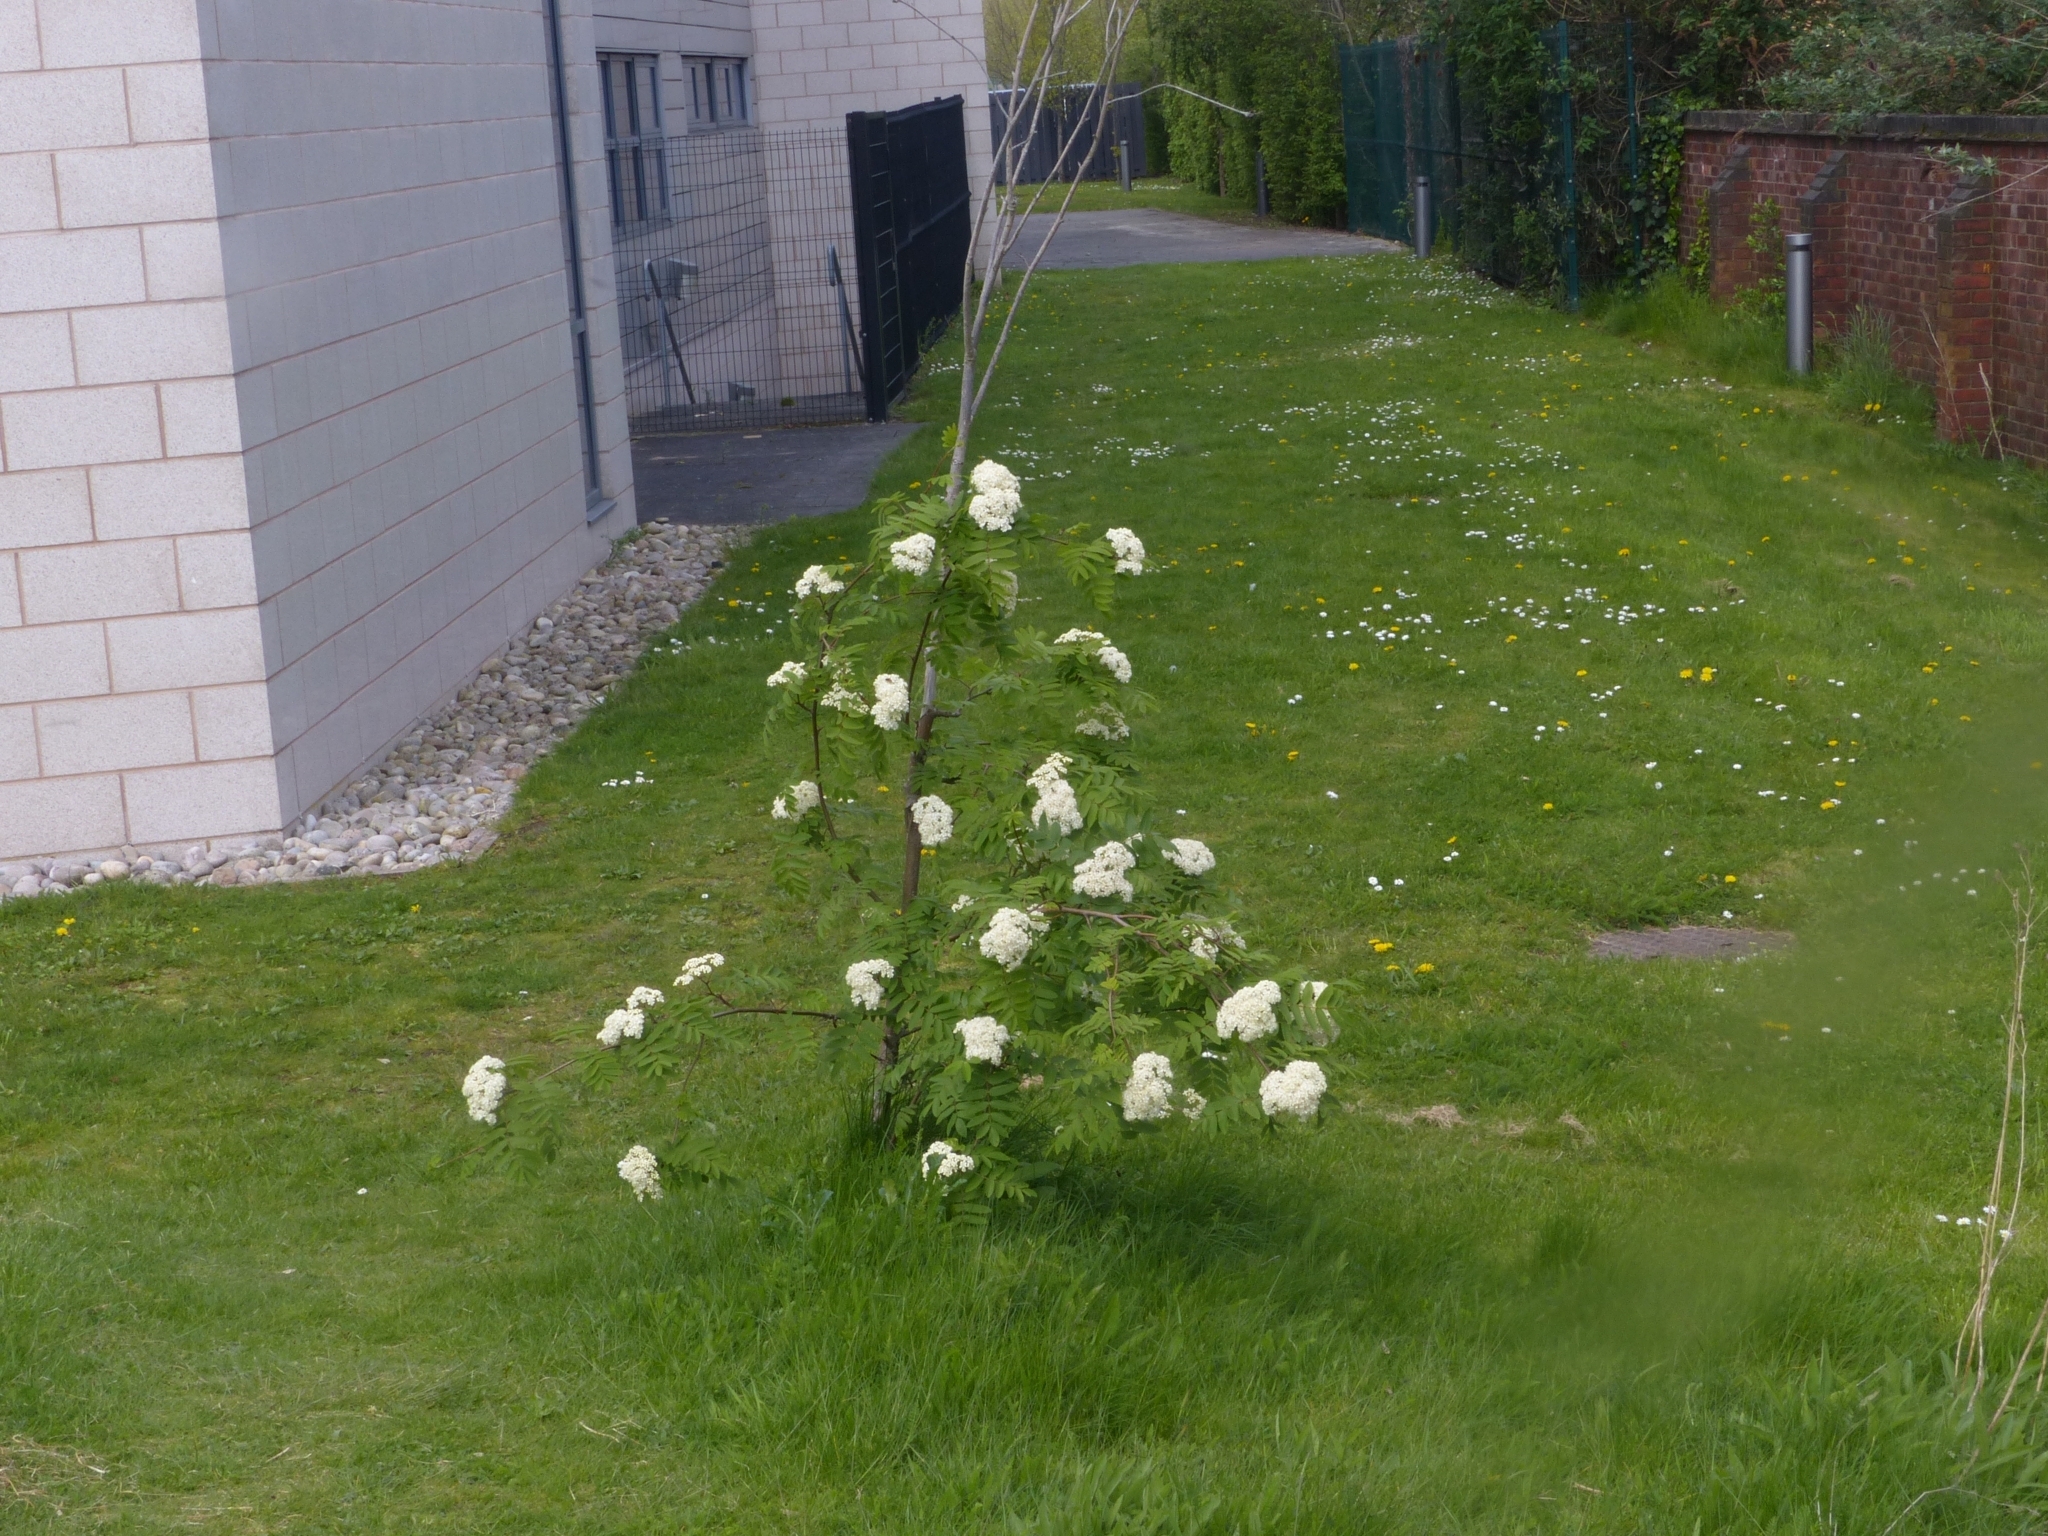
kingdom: Plantae
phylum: Tracheophyta
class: Magnoliopsida
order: Rosales
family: Rosaceae
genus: Sorbus
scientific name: Sorbus aucuparia
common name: Rowan
